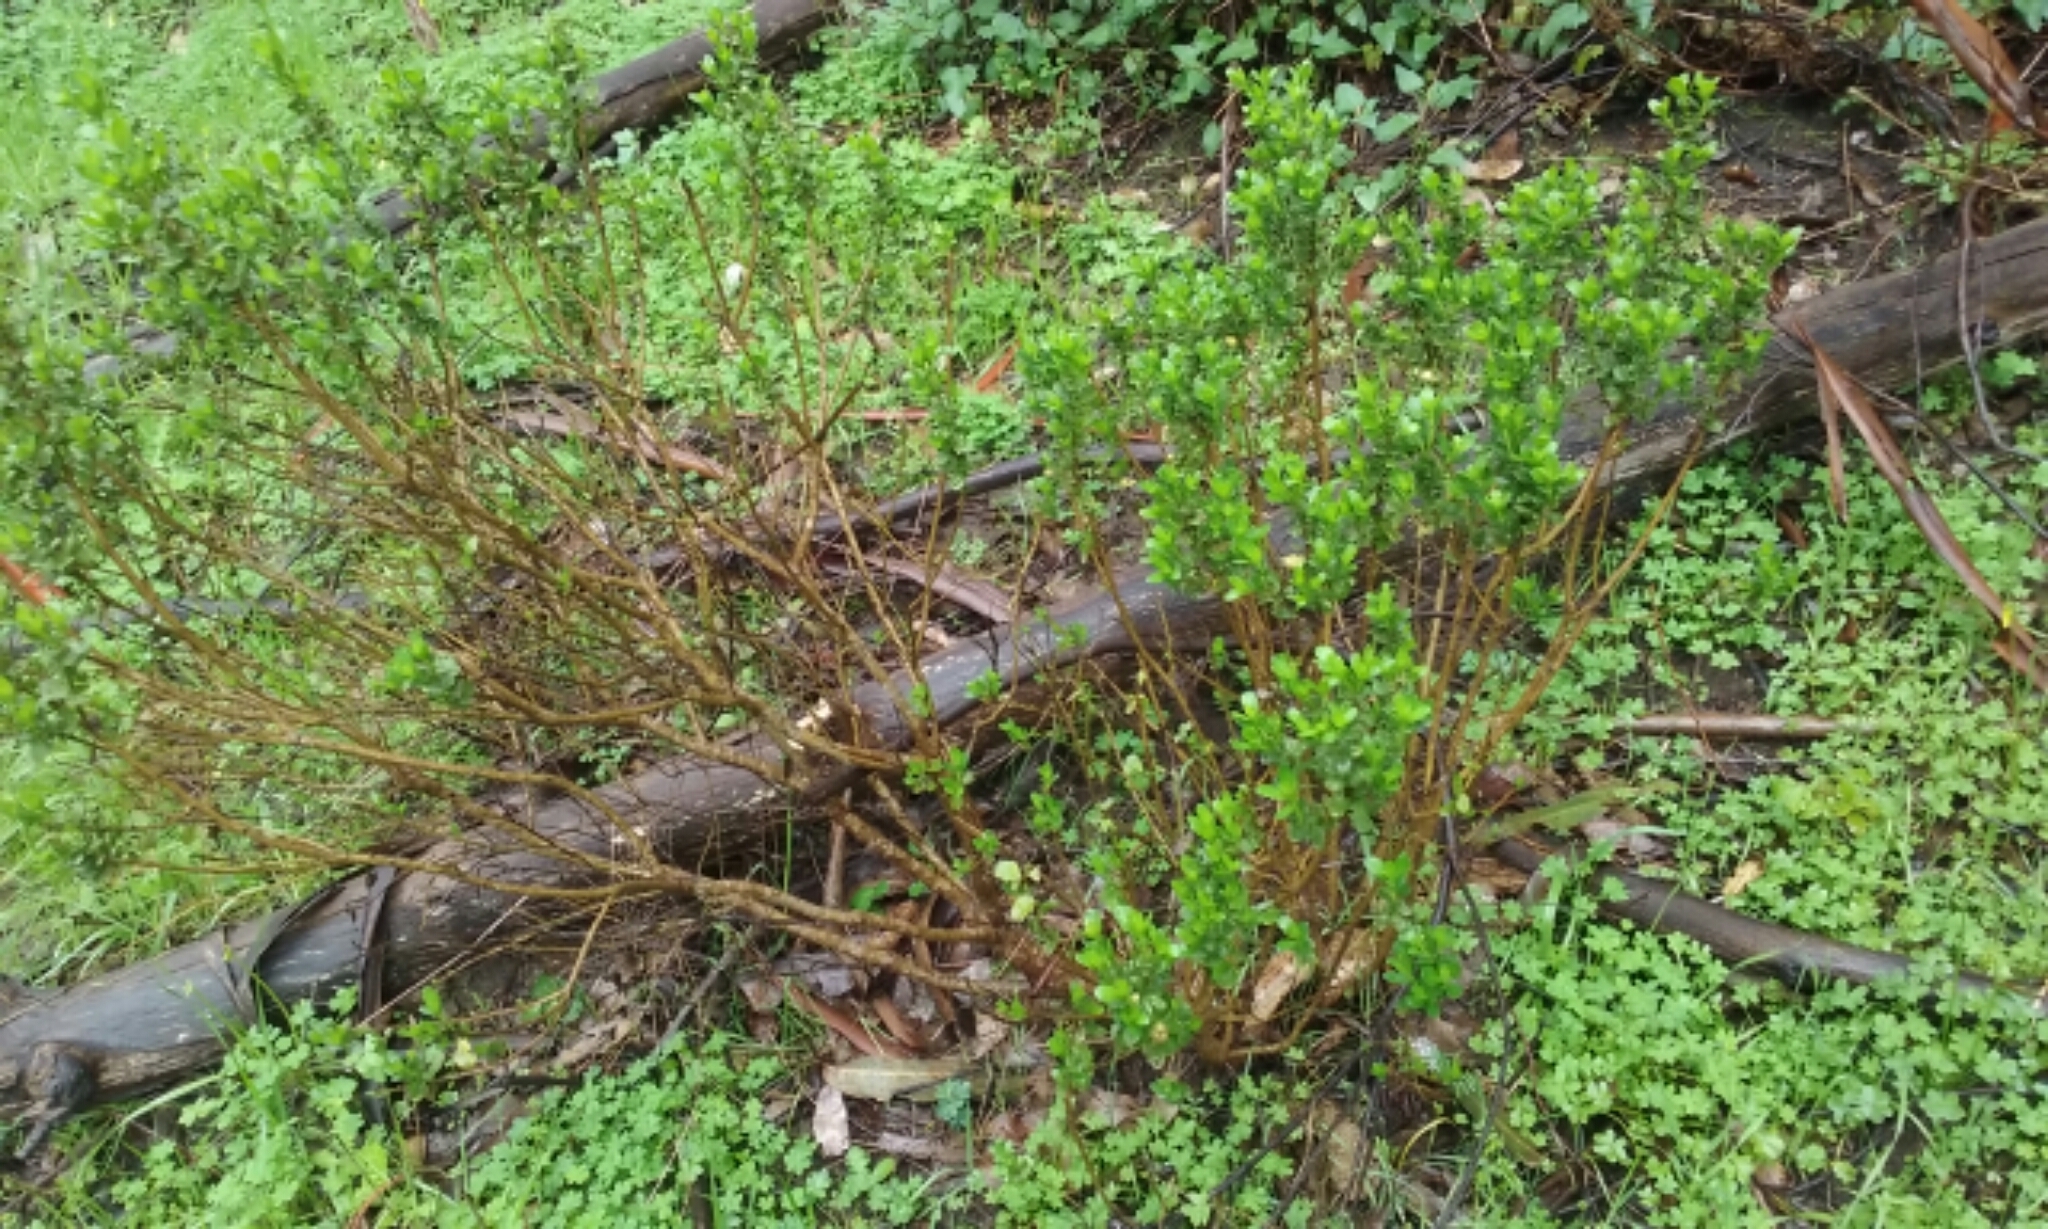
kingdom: Plantae
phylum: Tracheophyta
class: Magnoliopsida
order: Asterales
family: Asteraceae
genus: Baccharis
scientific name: Baccharis pilularis
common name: Coyotebrush
